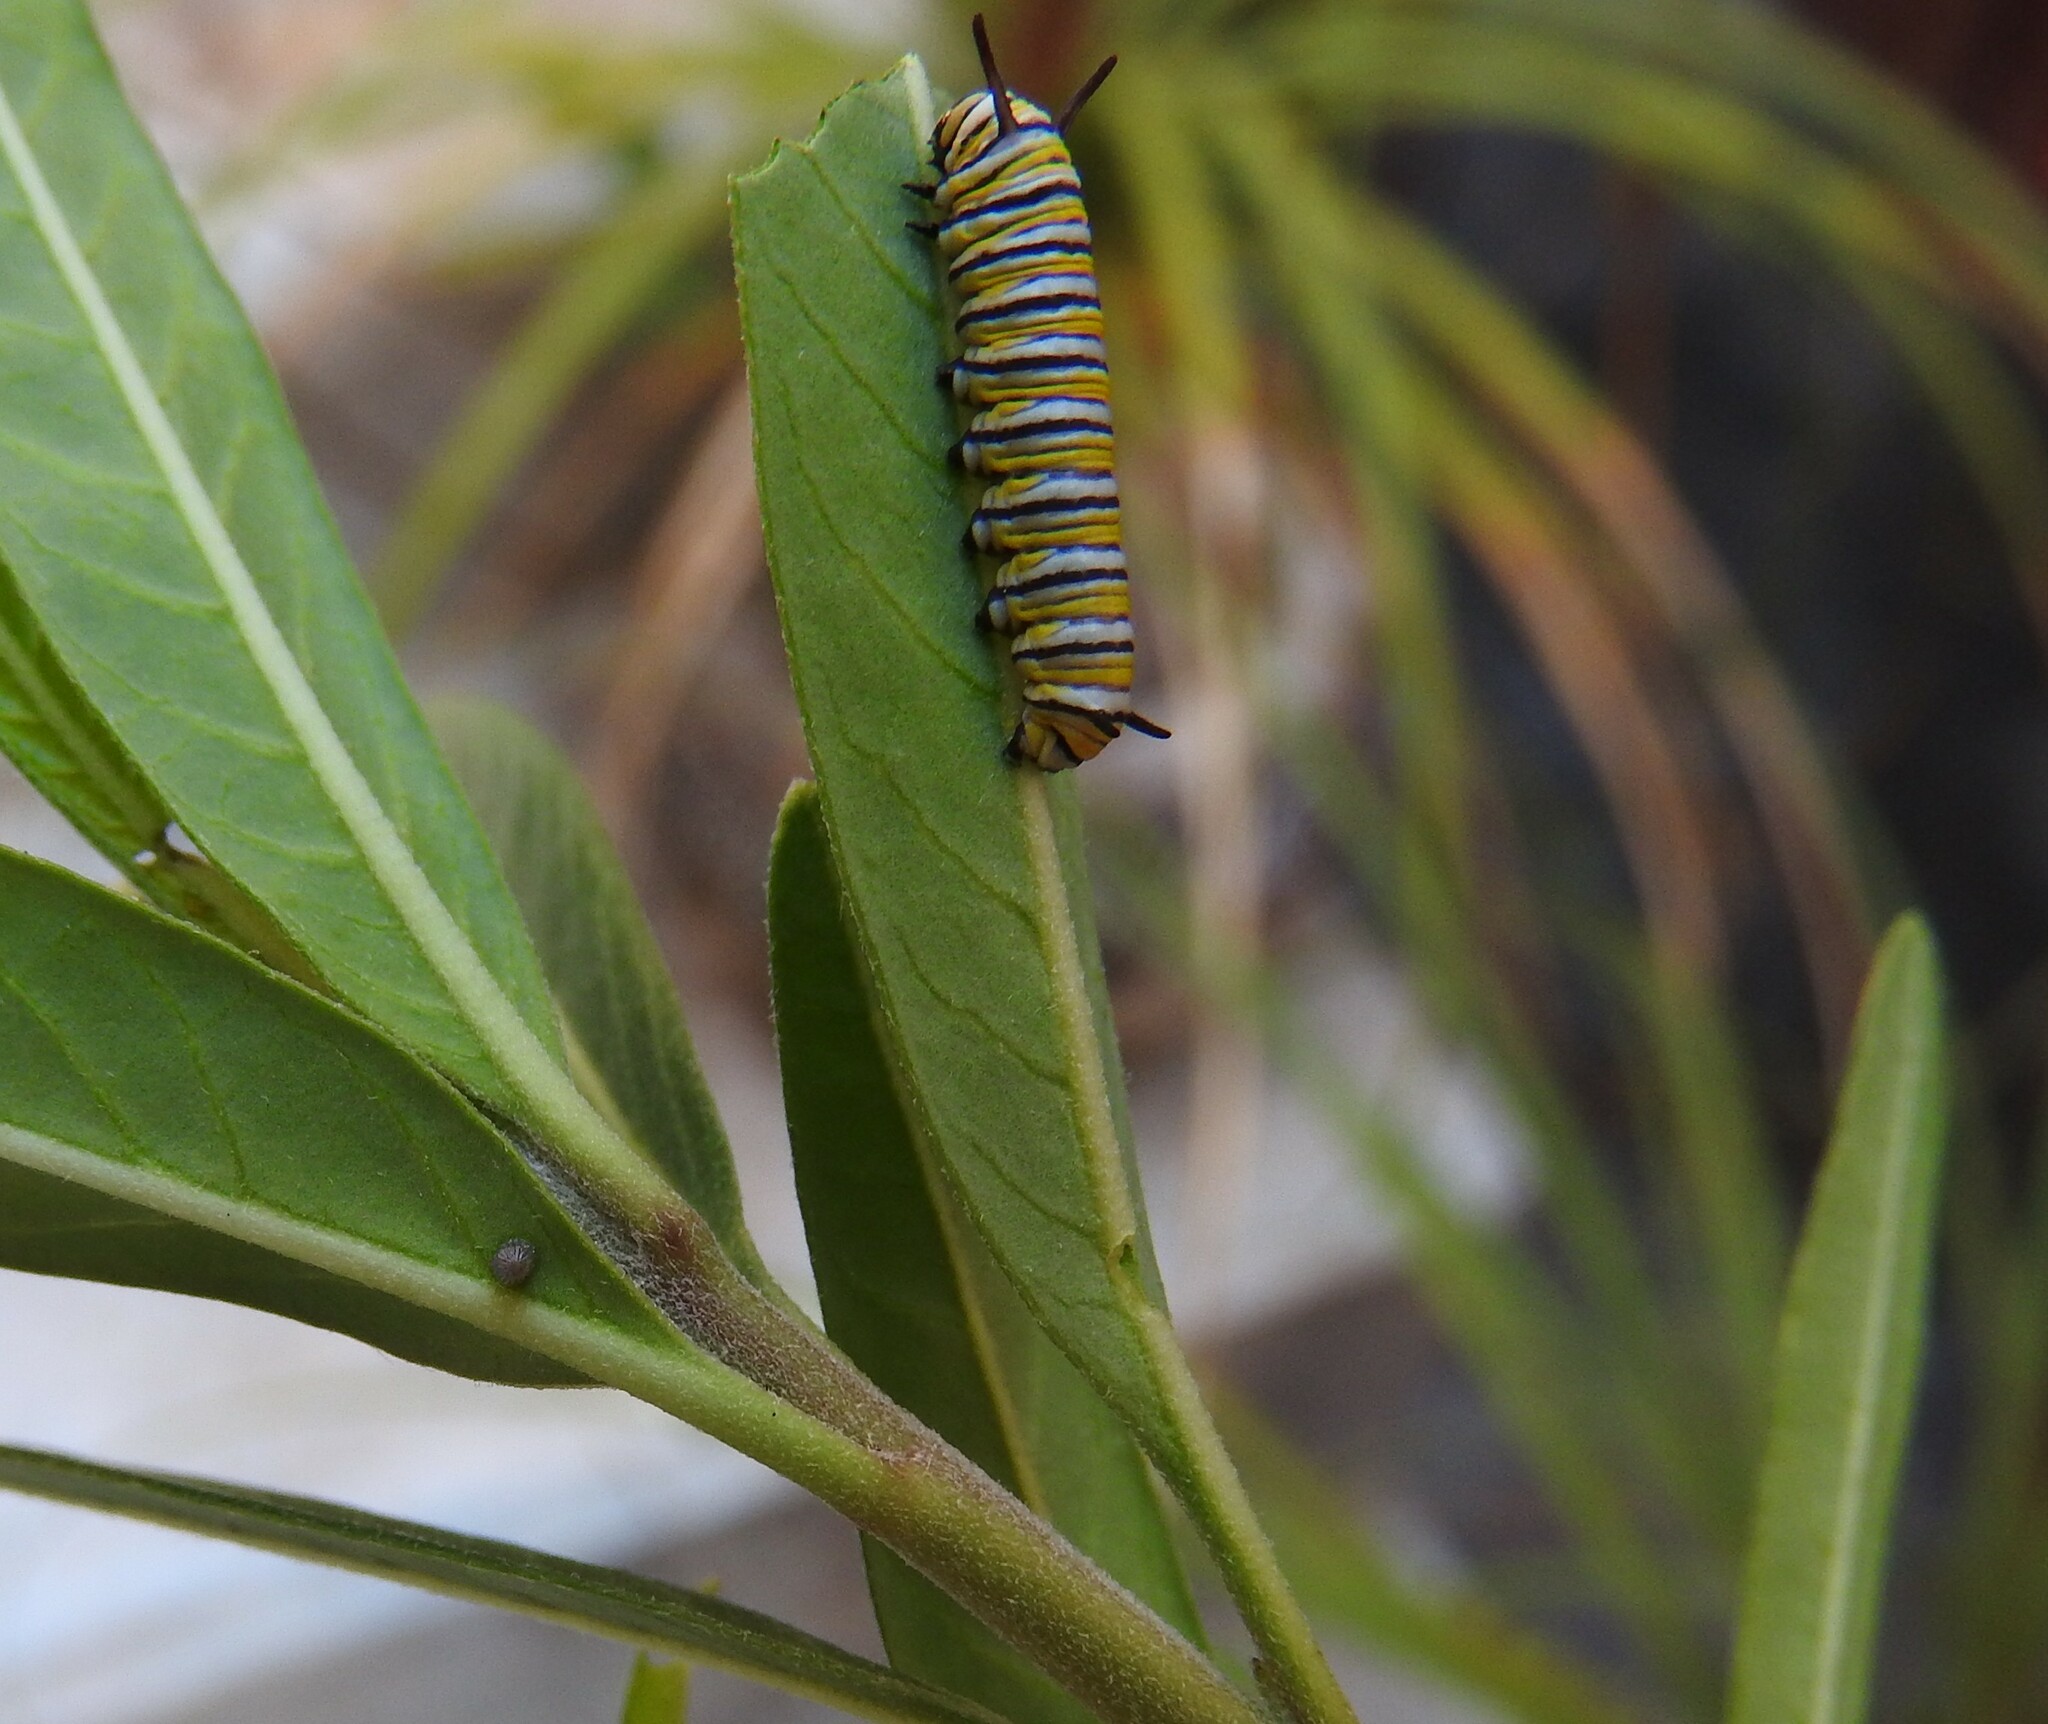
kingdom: Animalia
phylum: Arthropoda
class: Insecta
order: Lepidoptera
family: Nymphalidae
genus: Danaus
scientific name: Danaus plexippus
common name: Monarch
